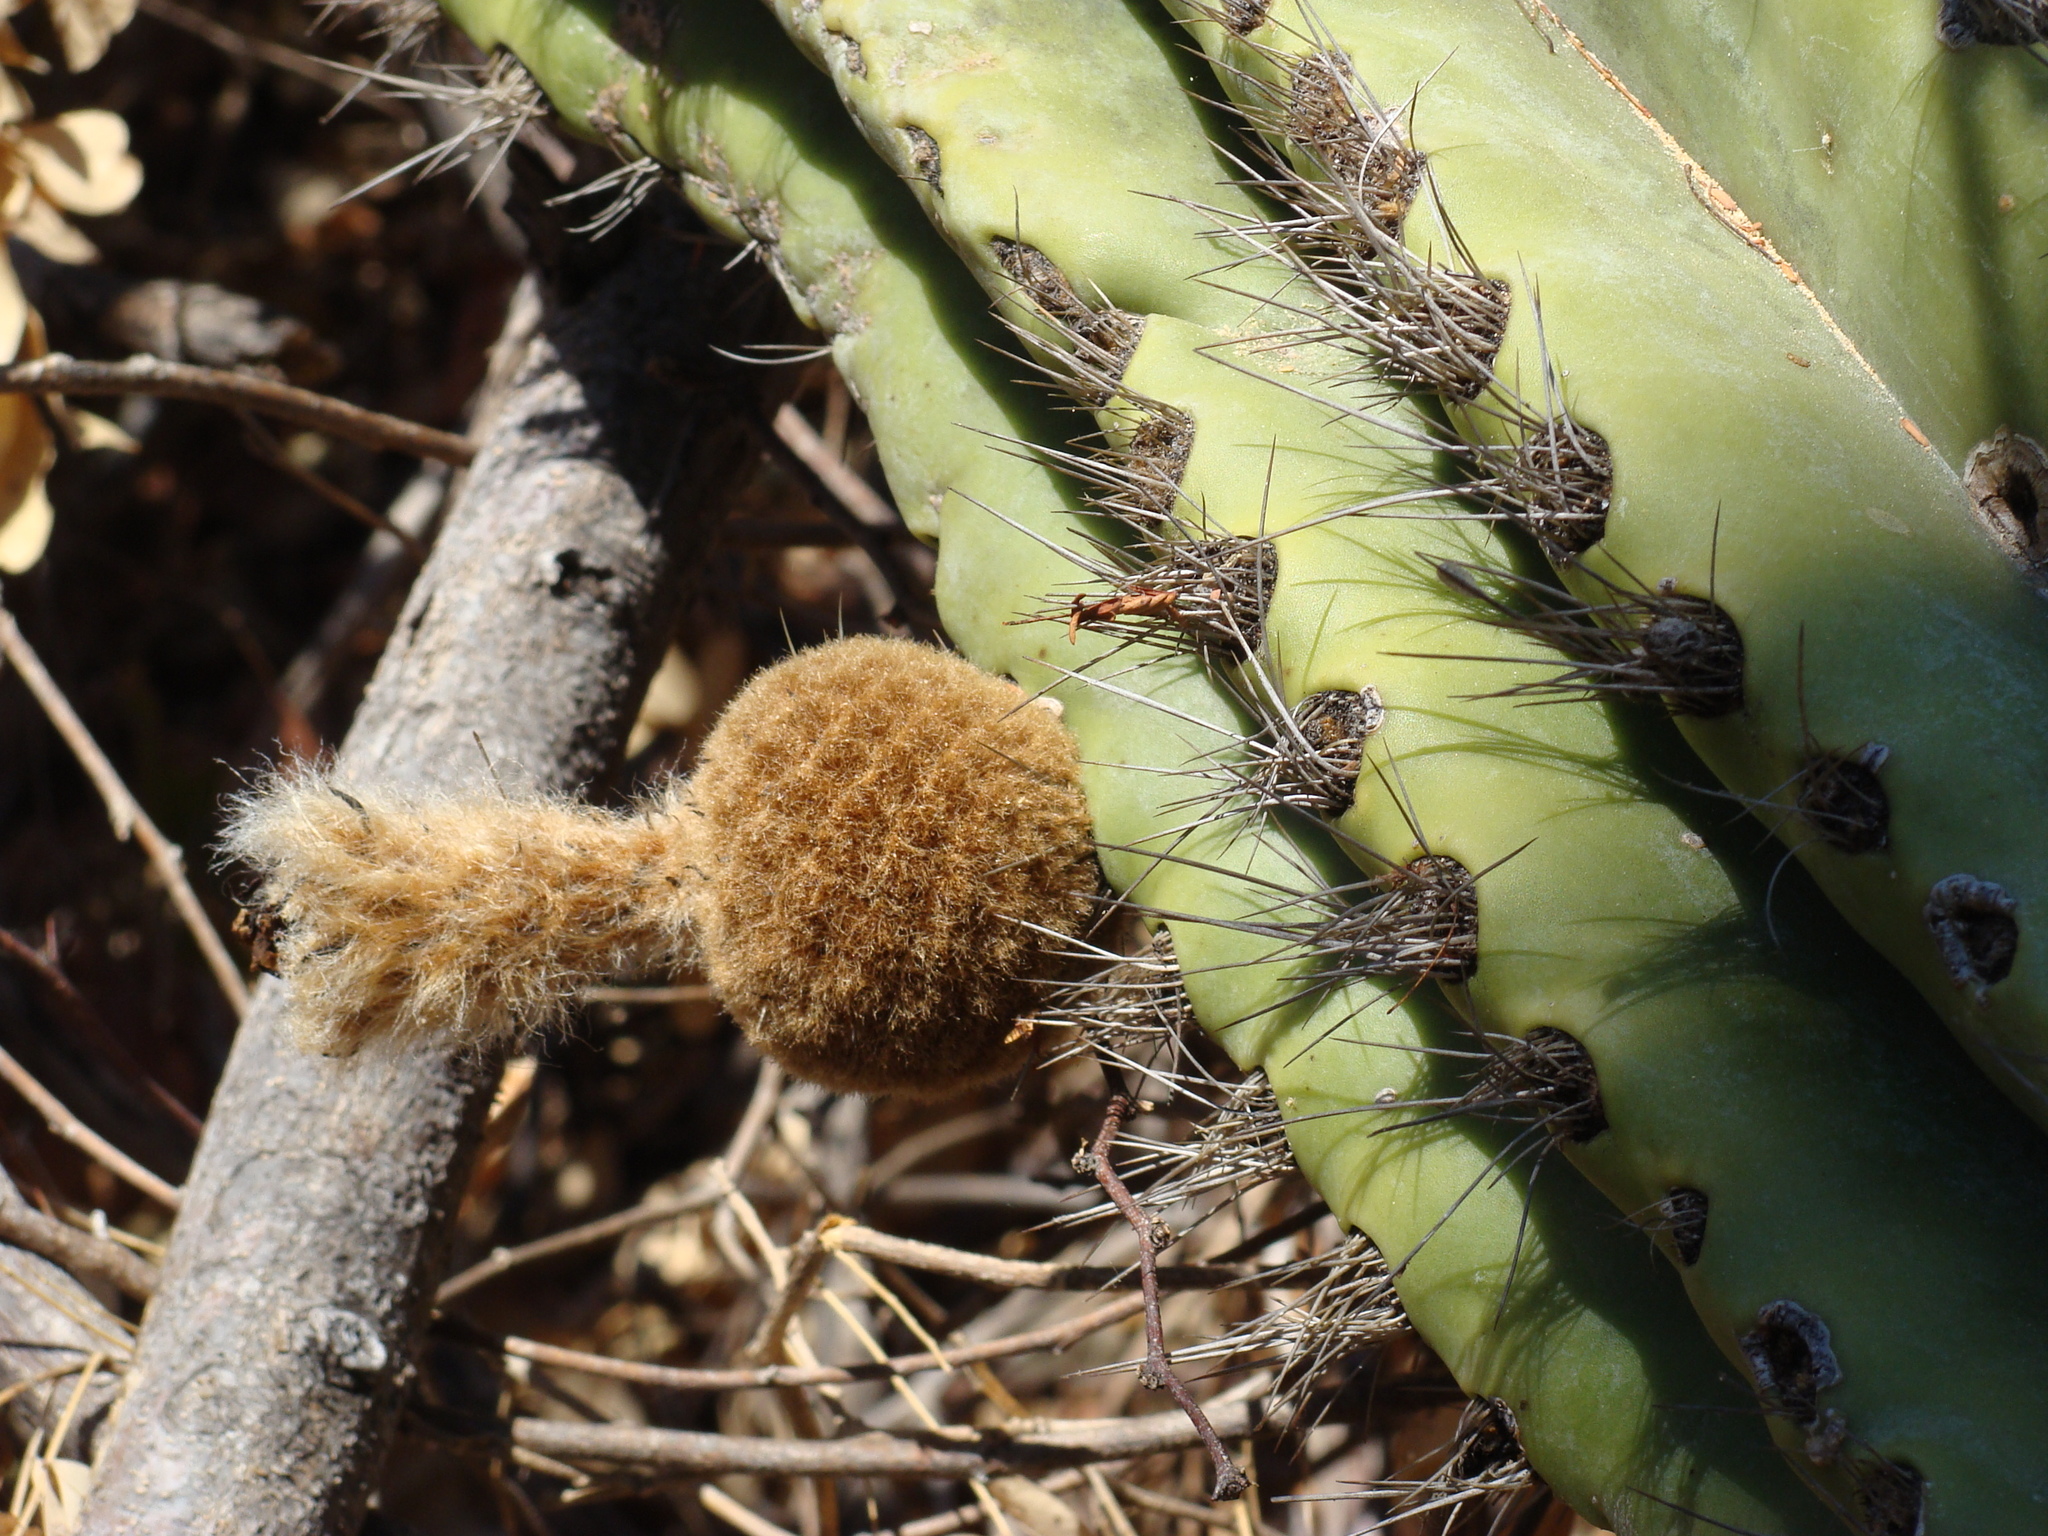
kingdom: Plantae
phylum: Tracheophyta
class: Magnoliopsida
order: Caryophyllales
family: Cactaceae
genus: Pachycereus
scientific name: Pachycereus pecten-aboriginum
